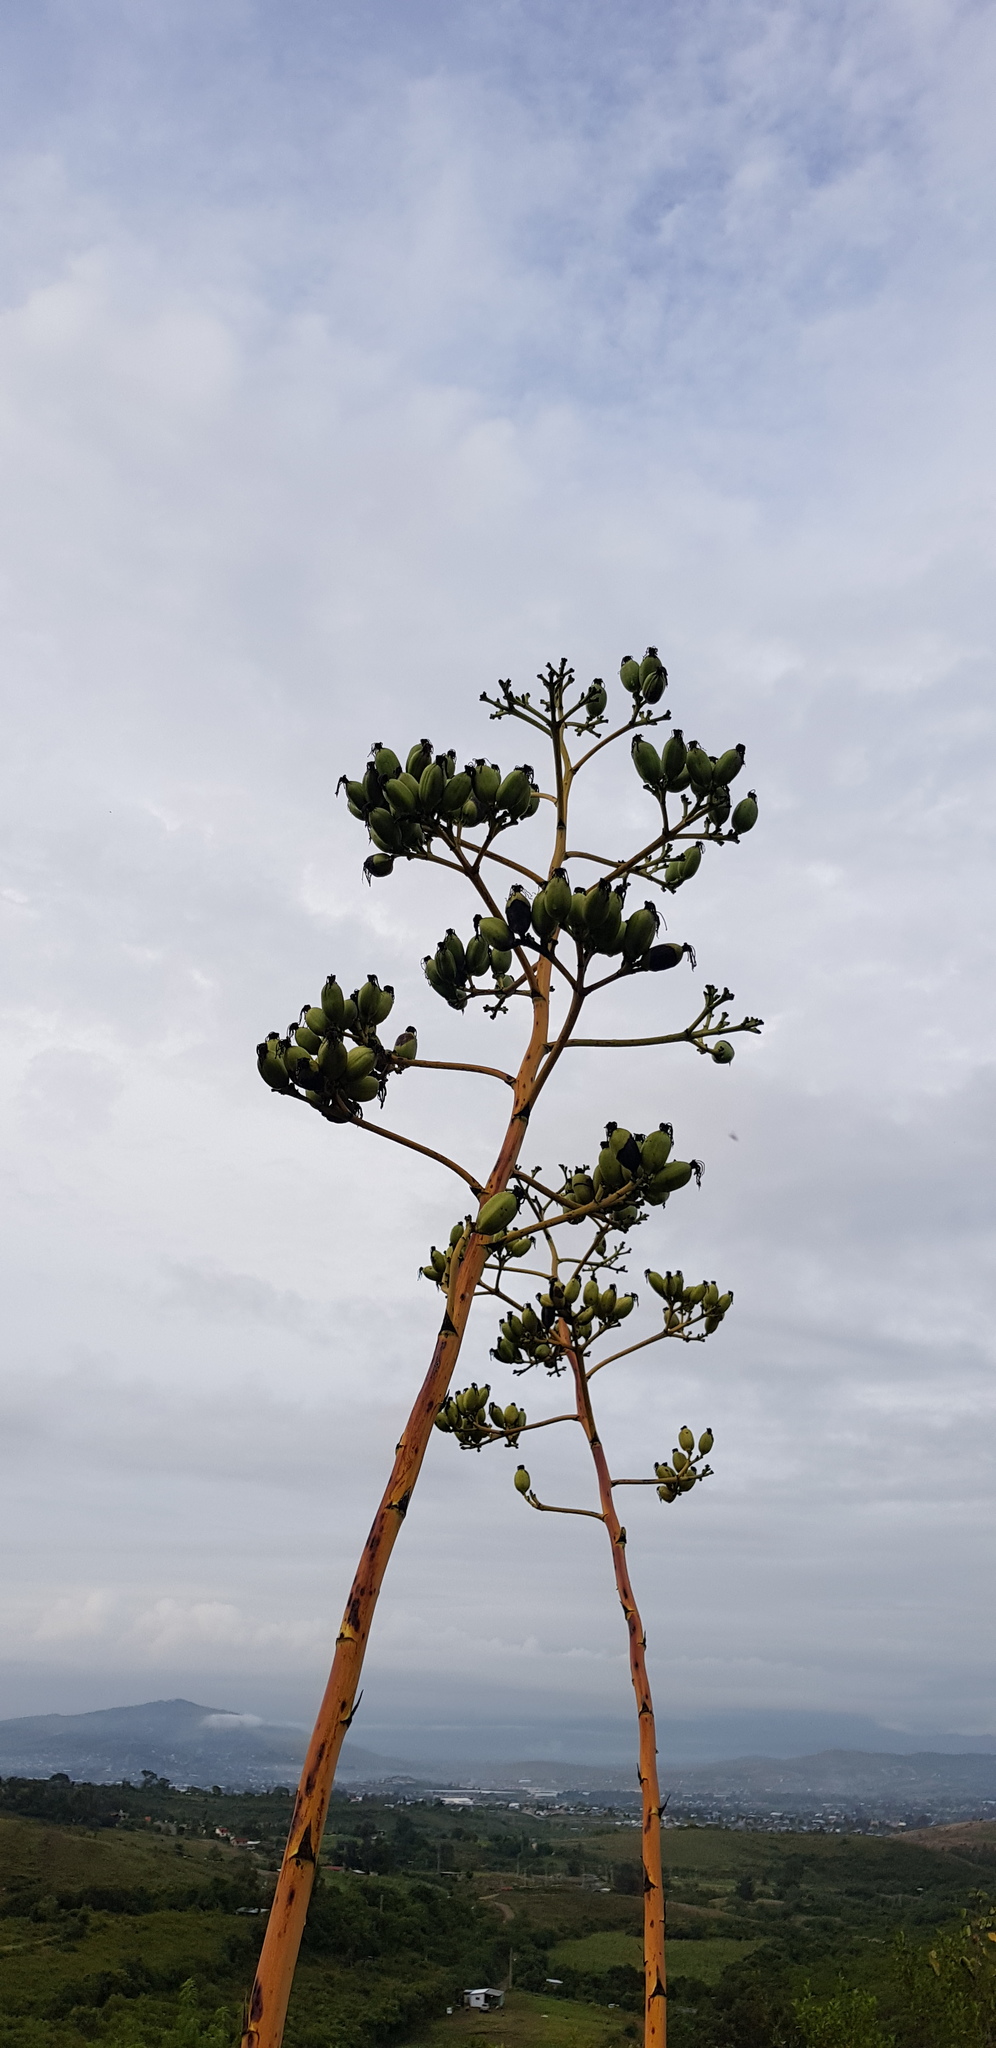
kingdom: Plantae
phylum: Tracheophyta
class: Liliopsida
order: Asparagales
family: Asparagaceae
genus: Agave
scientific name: Agave angustifolia
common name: Mescal agave
